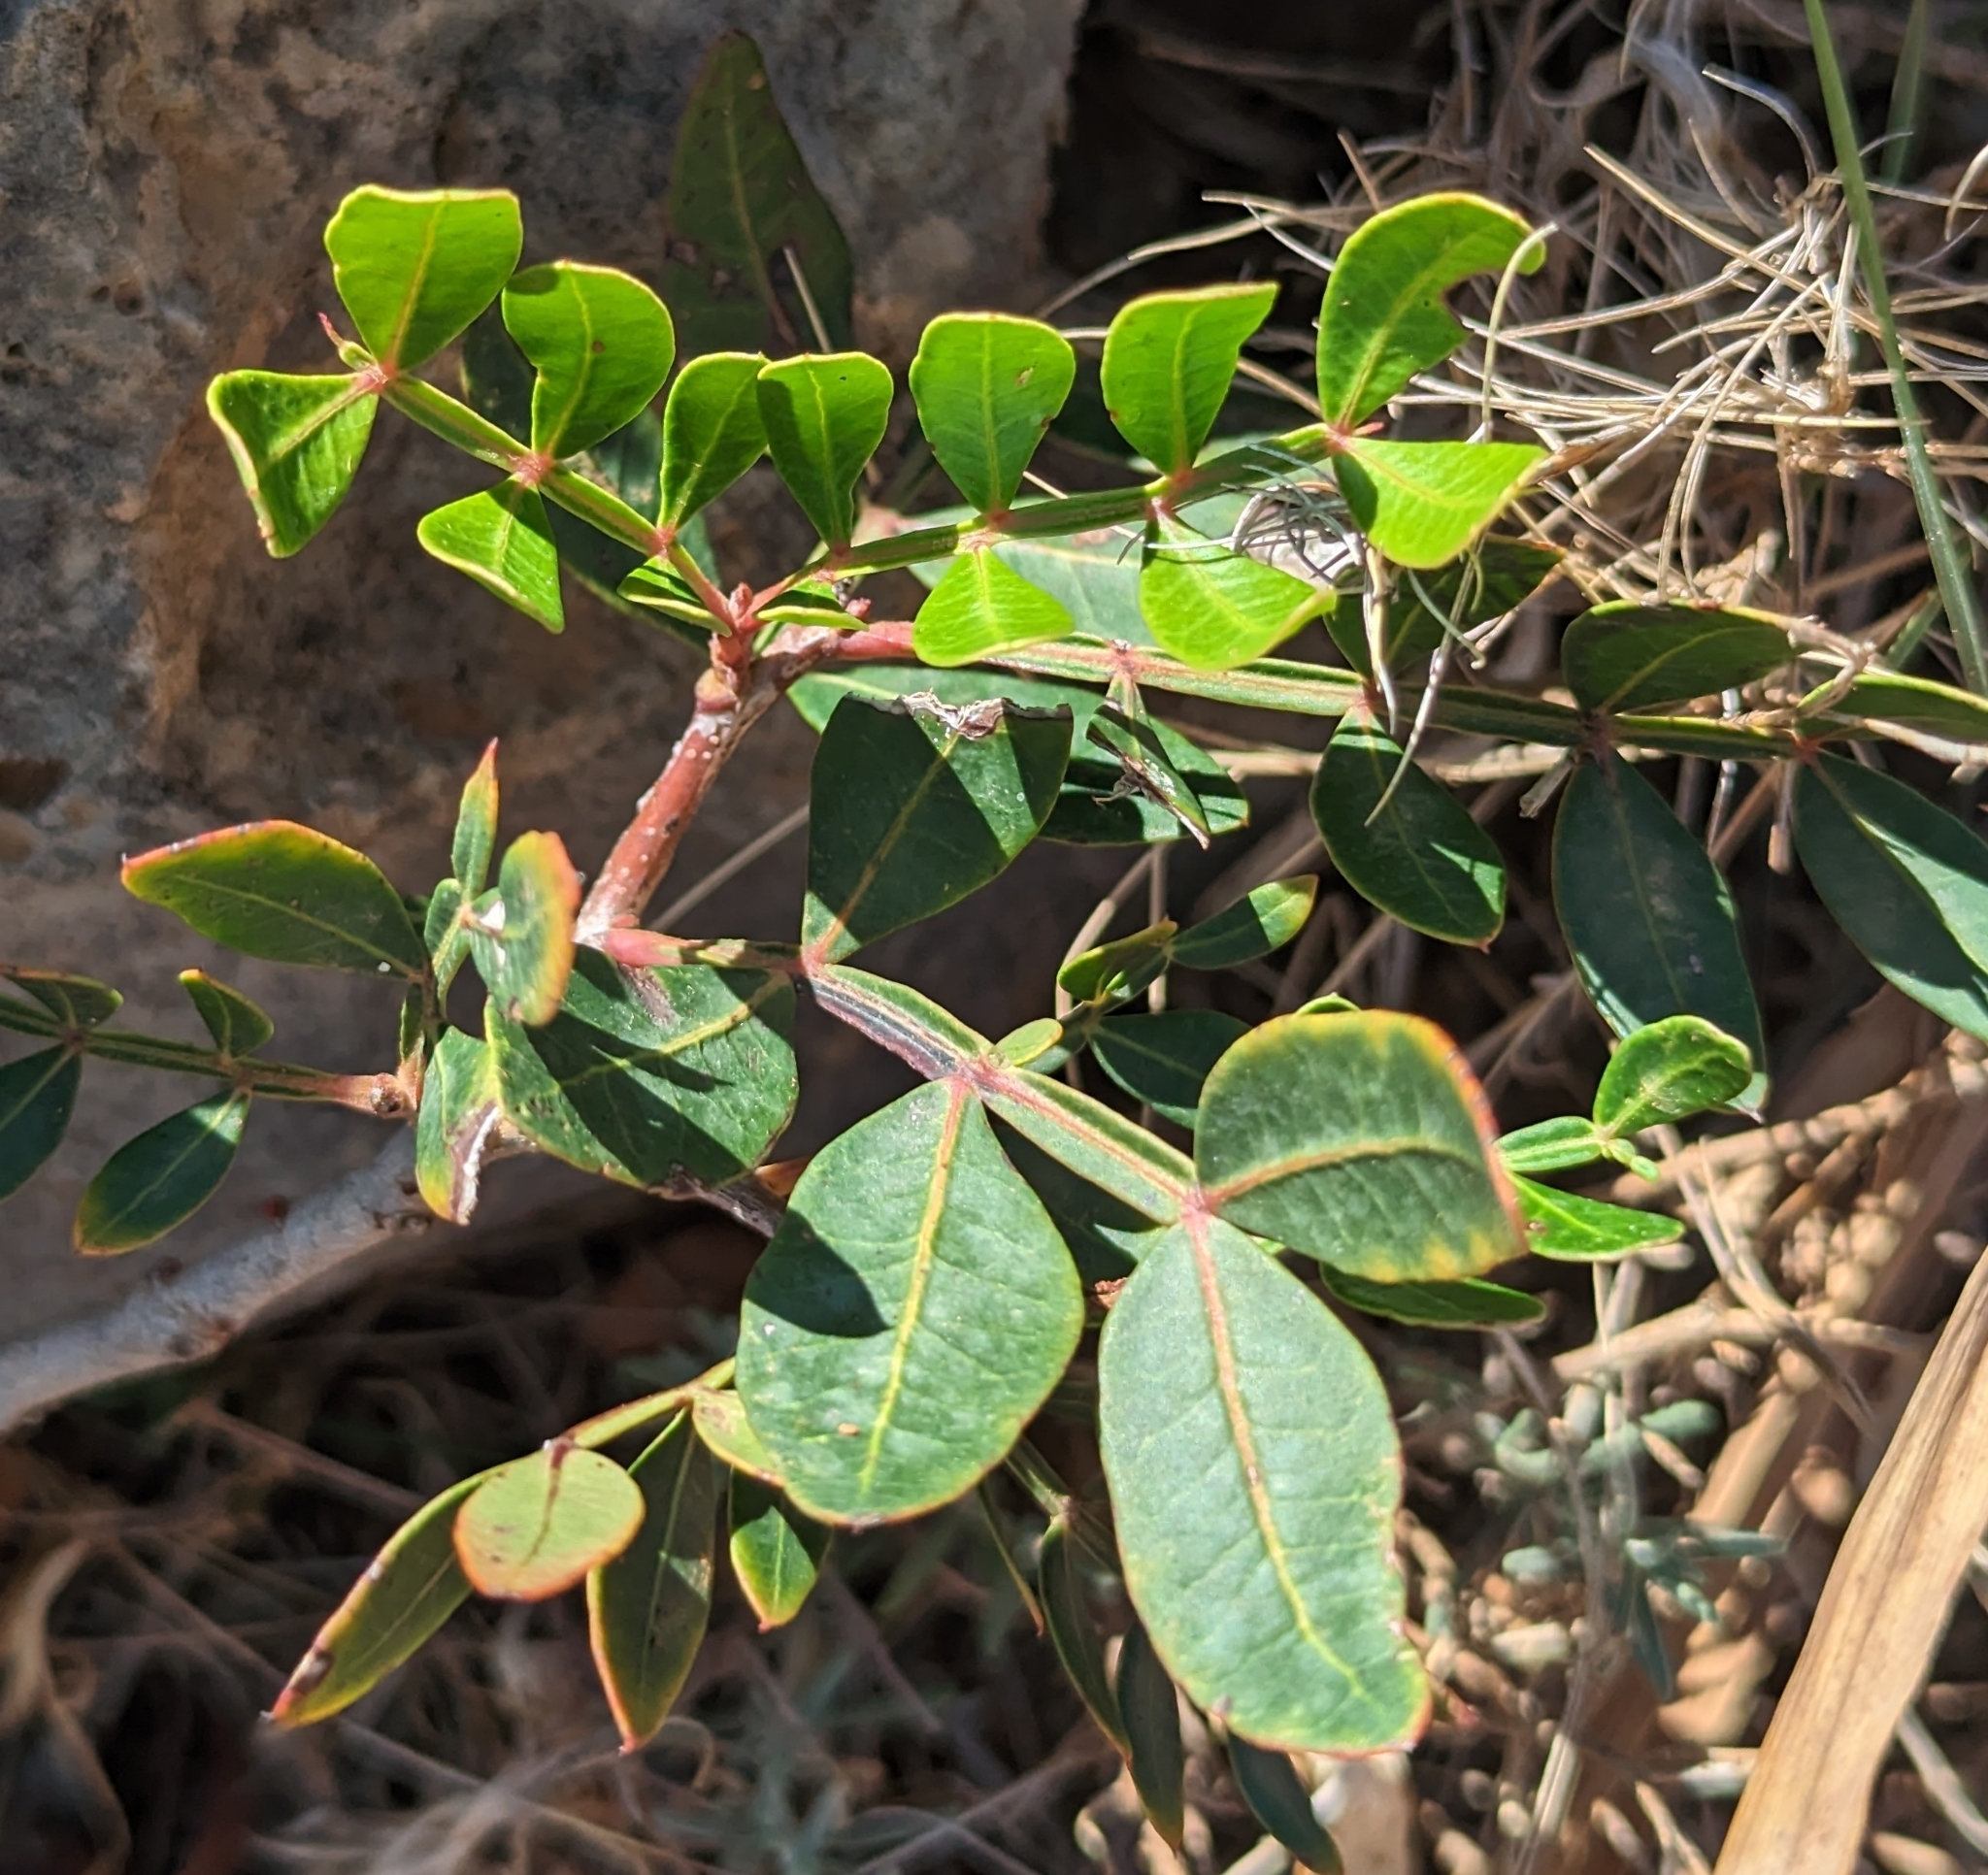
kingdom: Plantae
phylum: Tracheophyta
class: Magnoliopsida
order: Sapindales
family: Anacardiaceae
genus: Pistacia
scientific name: Pistacia lentiscus
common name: Lentisk
